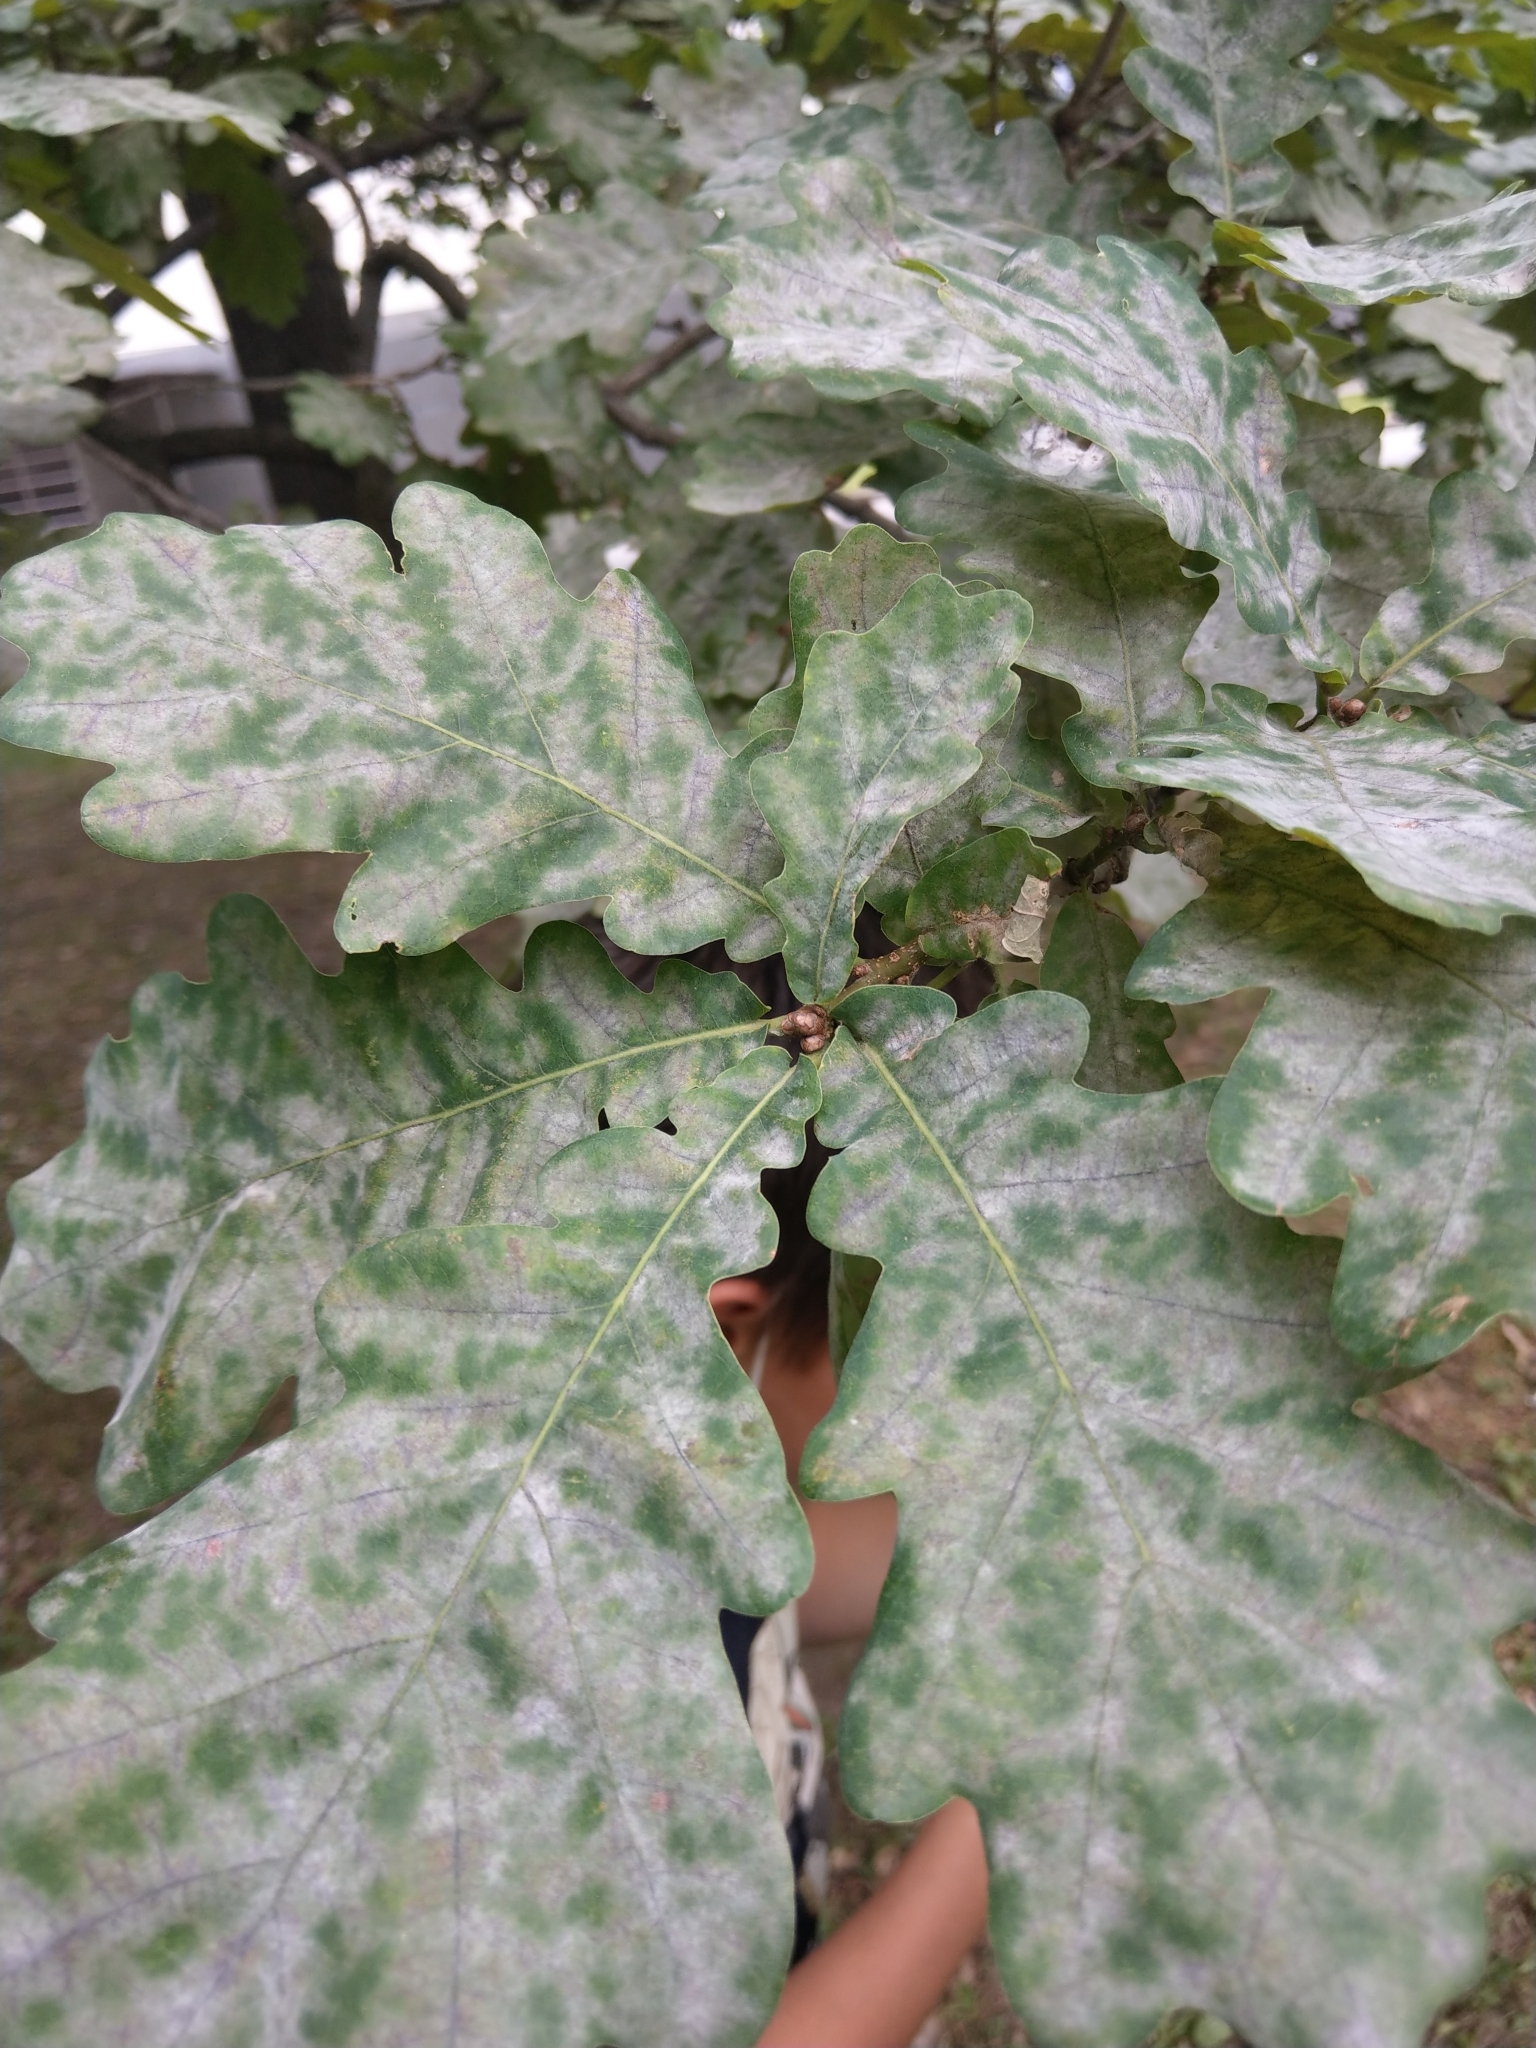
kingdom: Plantae
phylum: Tracheophyta
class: Magnoliopsida
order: Fagales
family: Fagaceae
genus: Quercus
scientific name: Quercus robur
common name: Pedunculate oak
